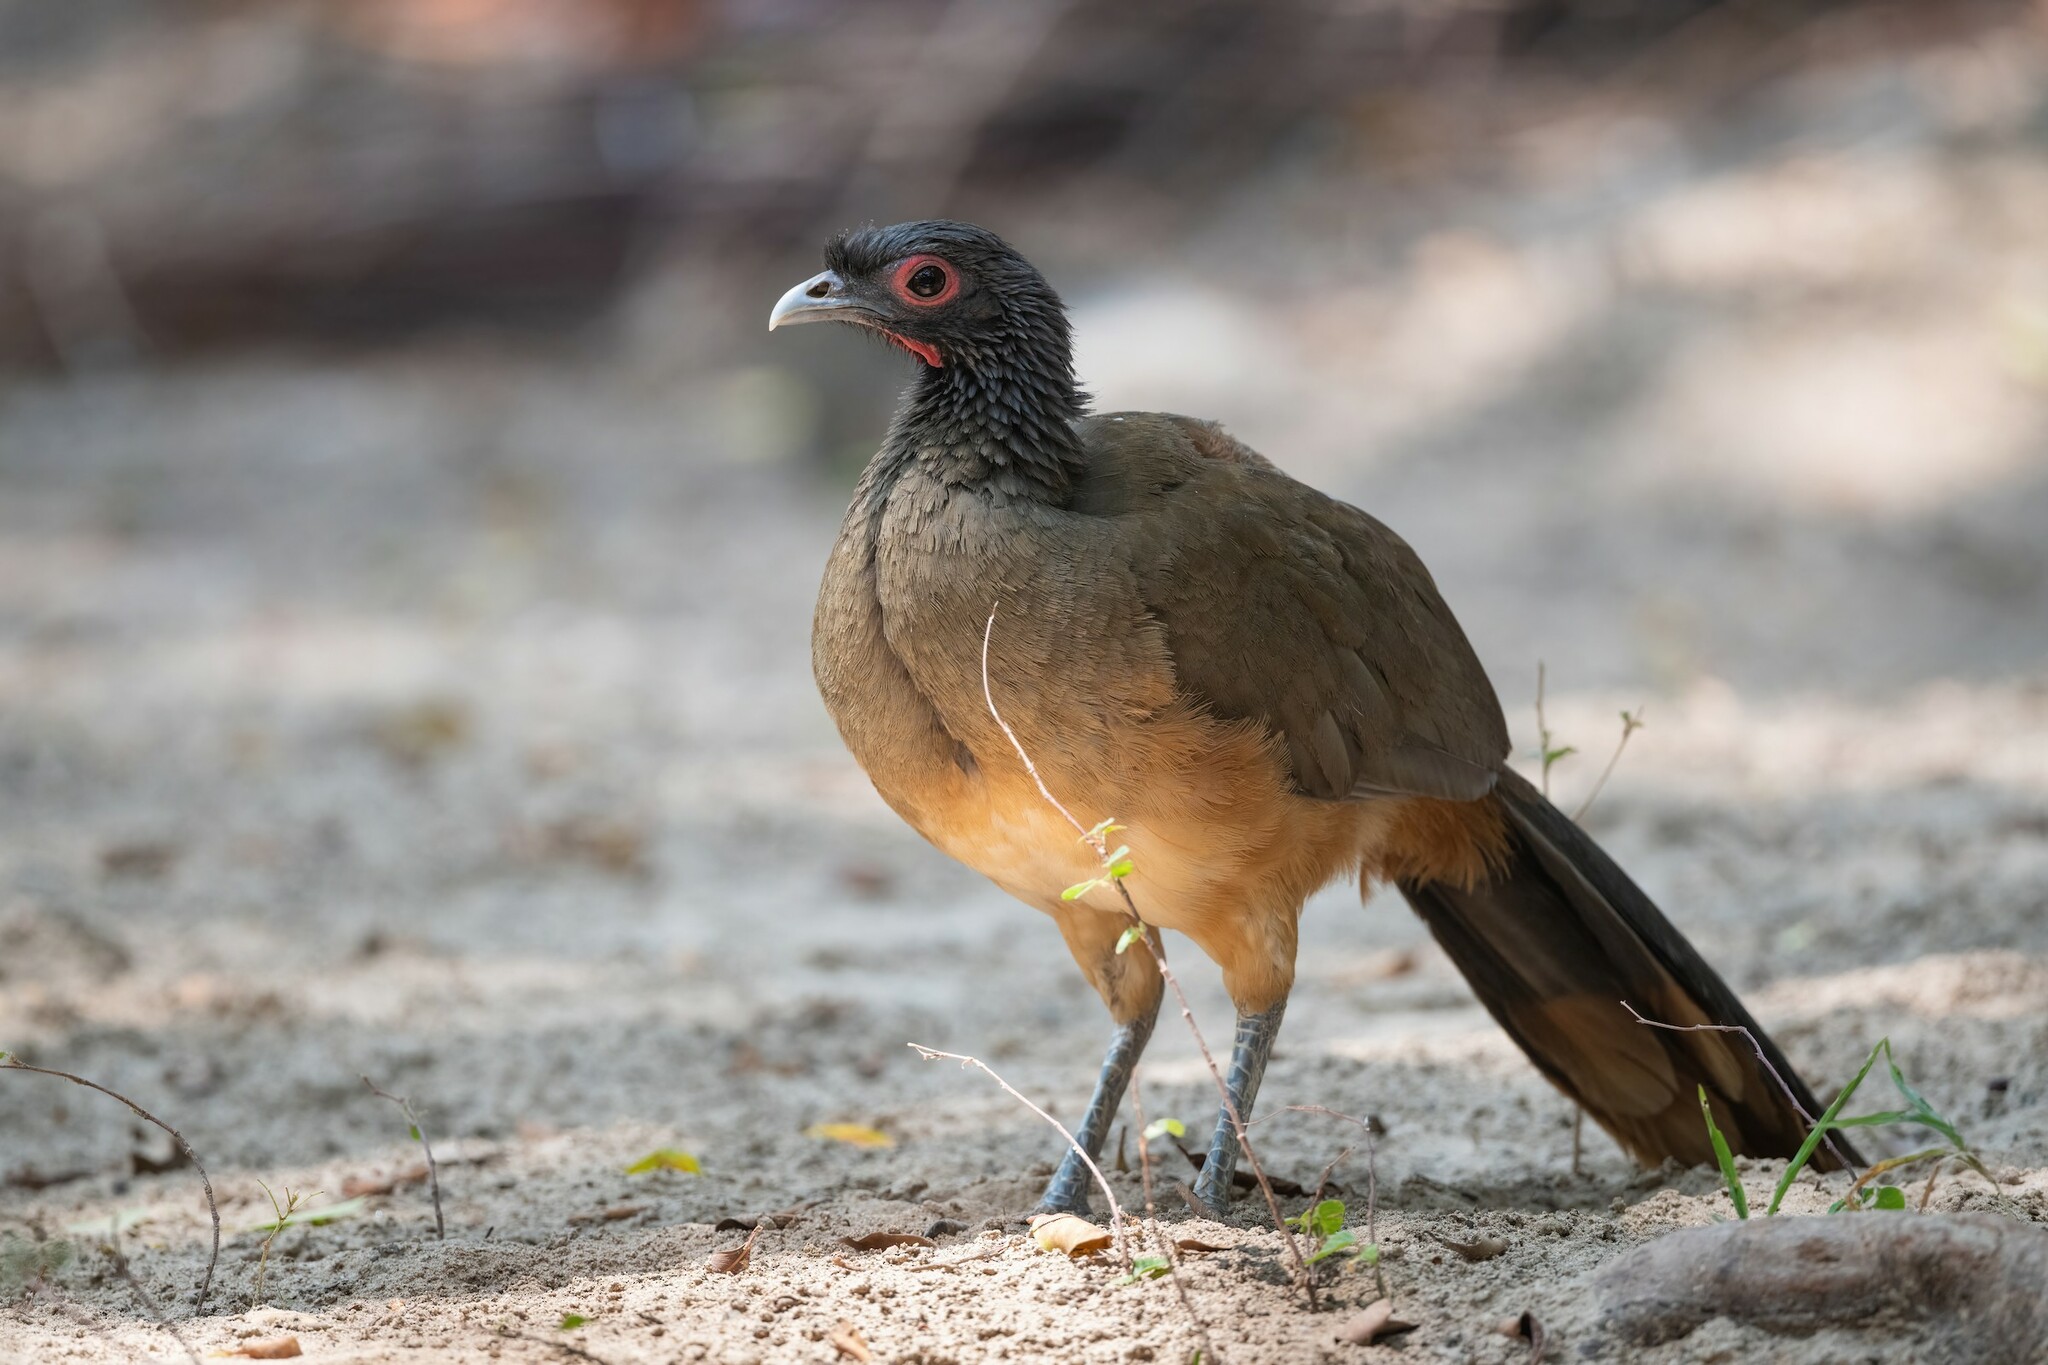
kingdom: Animalia
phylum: Chordata
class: Aves
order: Galliformes
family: Cracidae
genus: Ortalis
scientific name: Ortalis poliocephala
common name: West mexican chachalaca
